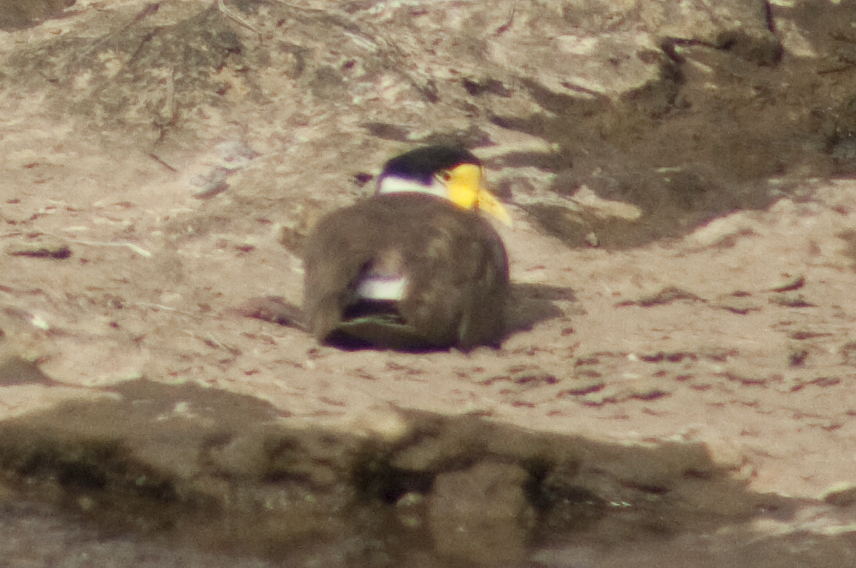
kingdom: Animalia
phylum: Chordata
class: Aves
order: Charadriiformes
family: Charadriidae
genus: Vanellus
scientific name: Vanellus miles
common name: Masked lapwing
